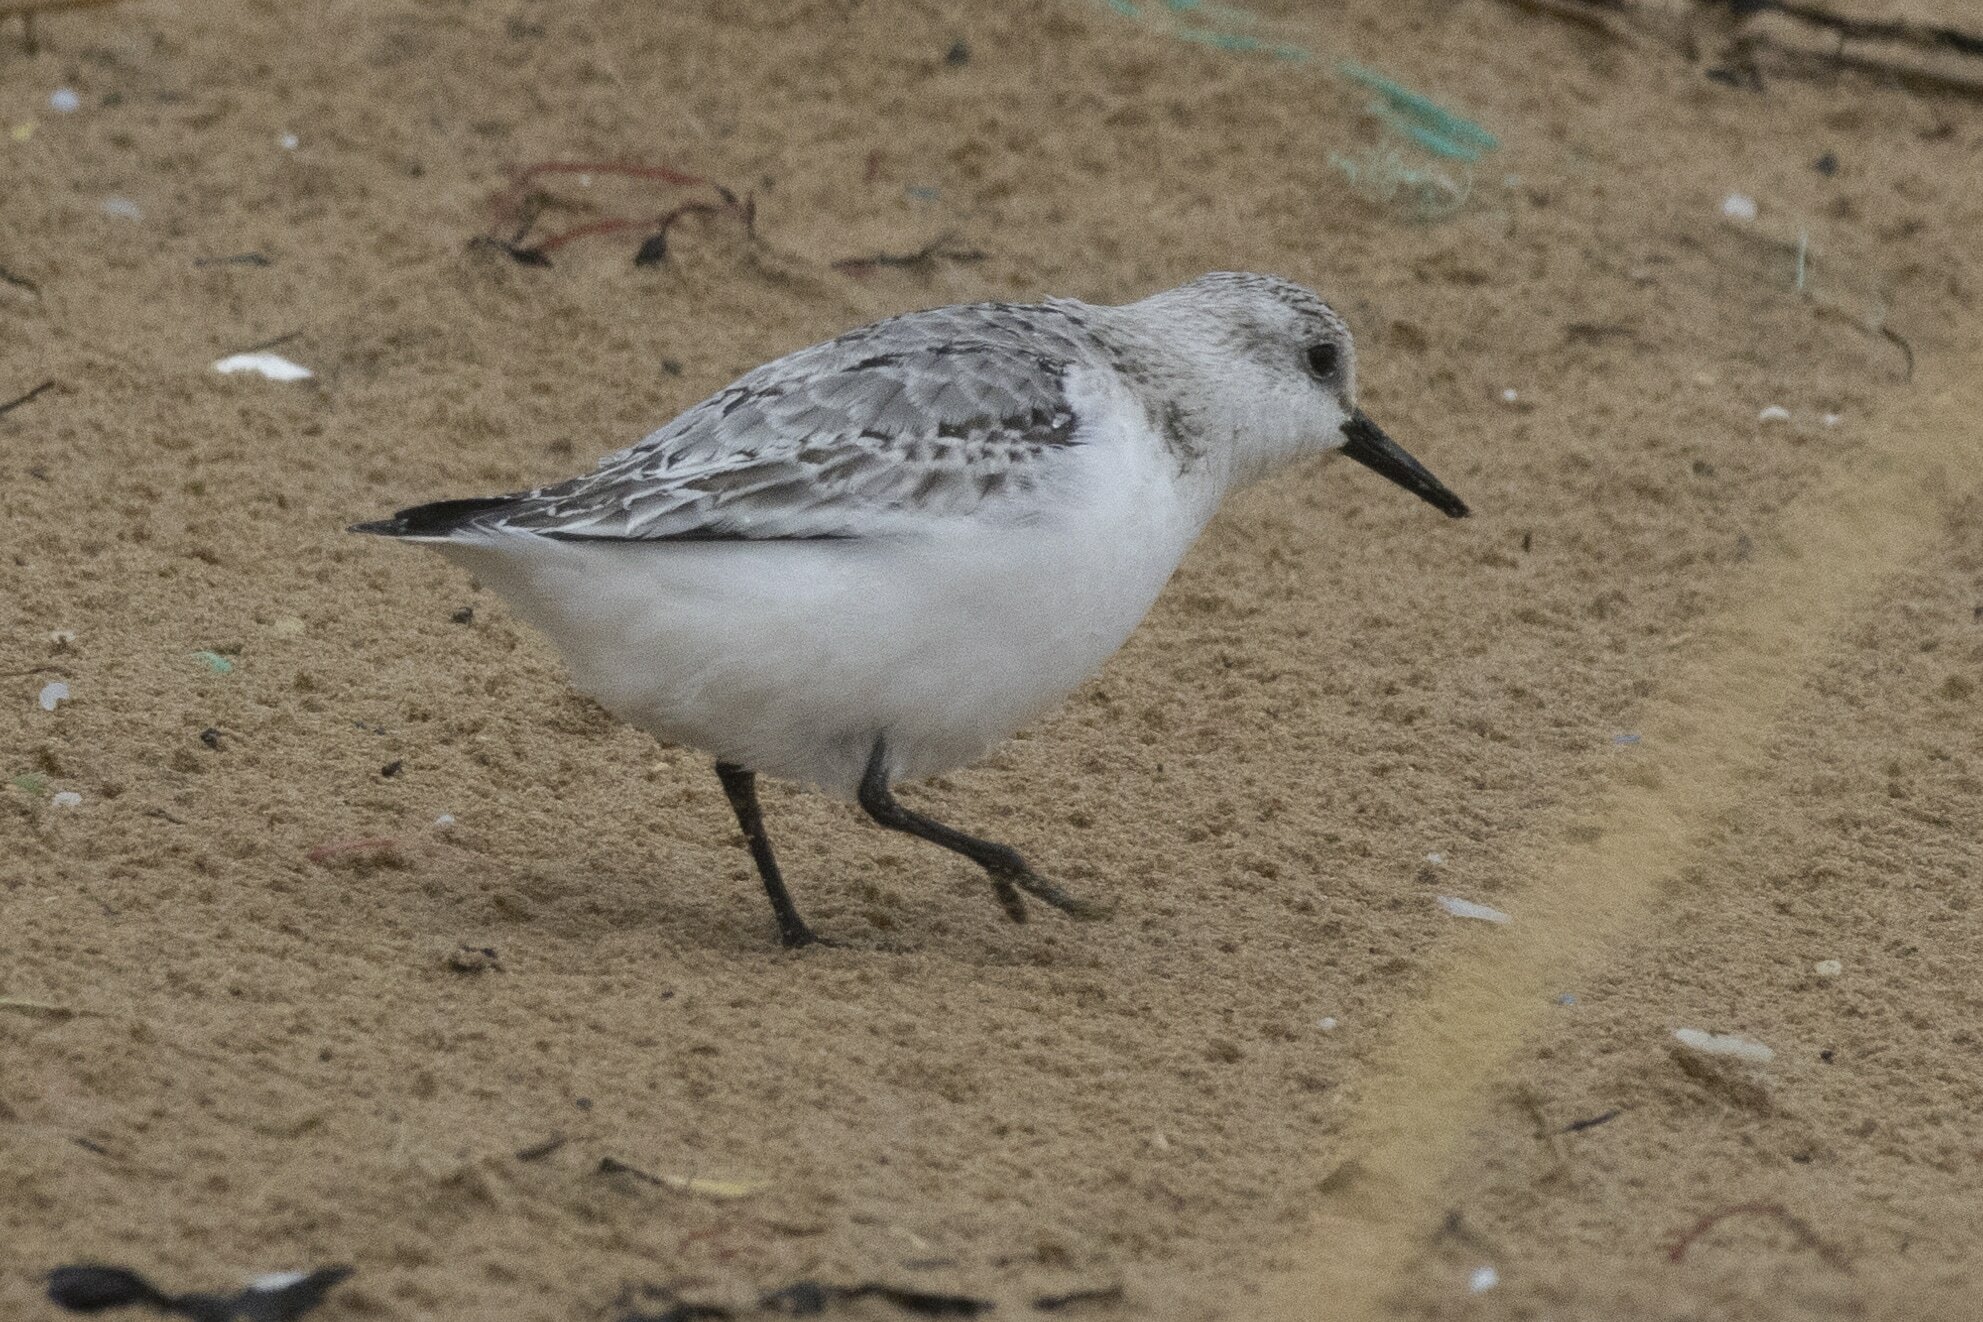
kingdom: Animalia
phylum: Chordata
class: Aves
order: Charadriiformes
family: Scolopacidae
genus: Calidris
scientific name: Calidris alba
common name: Sanderling
